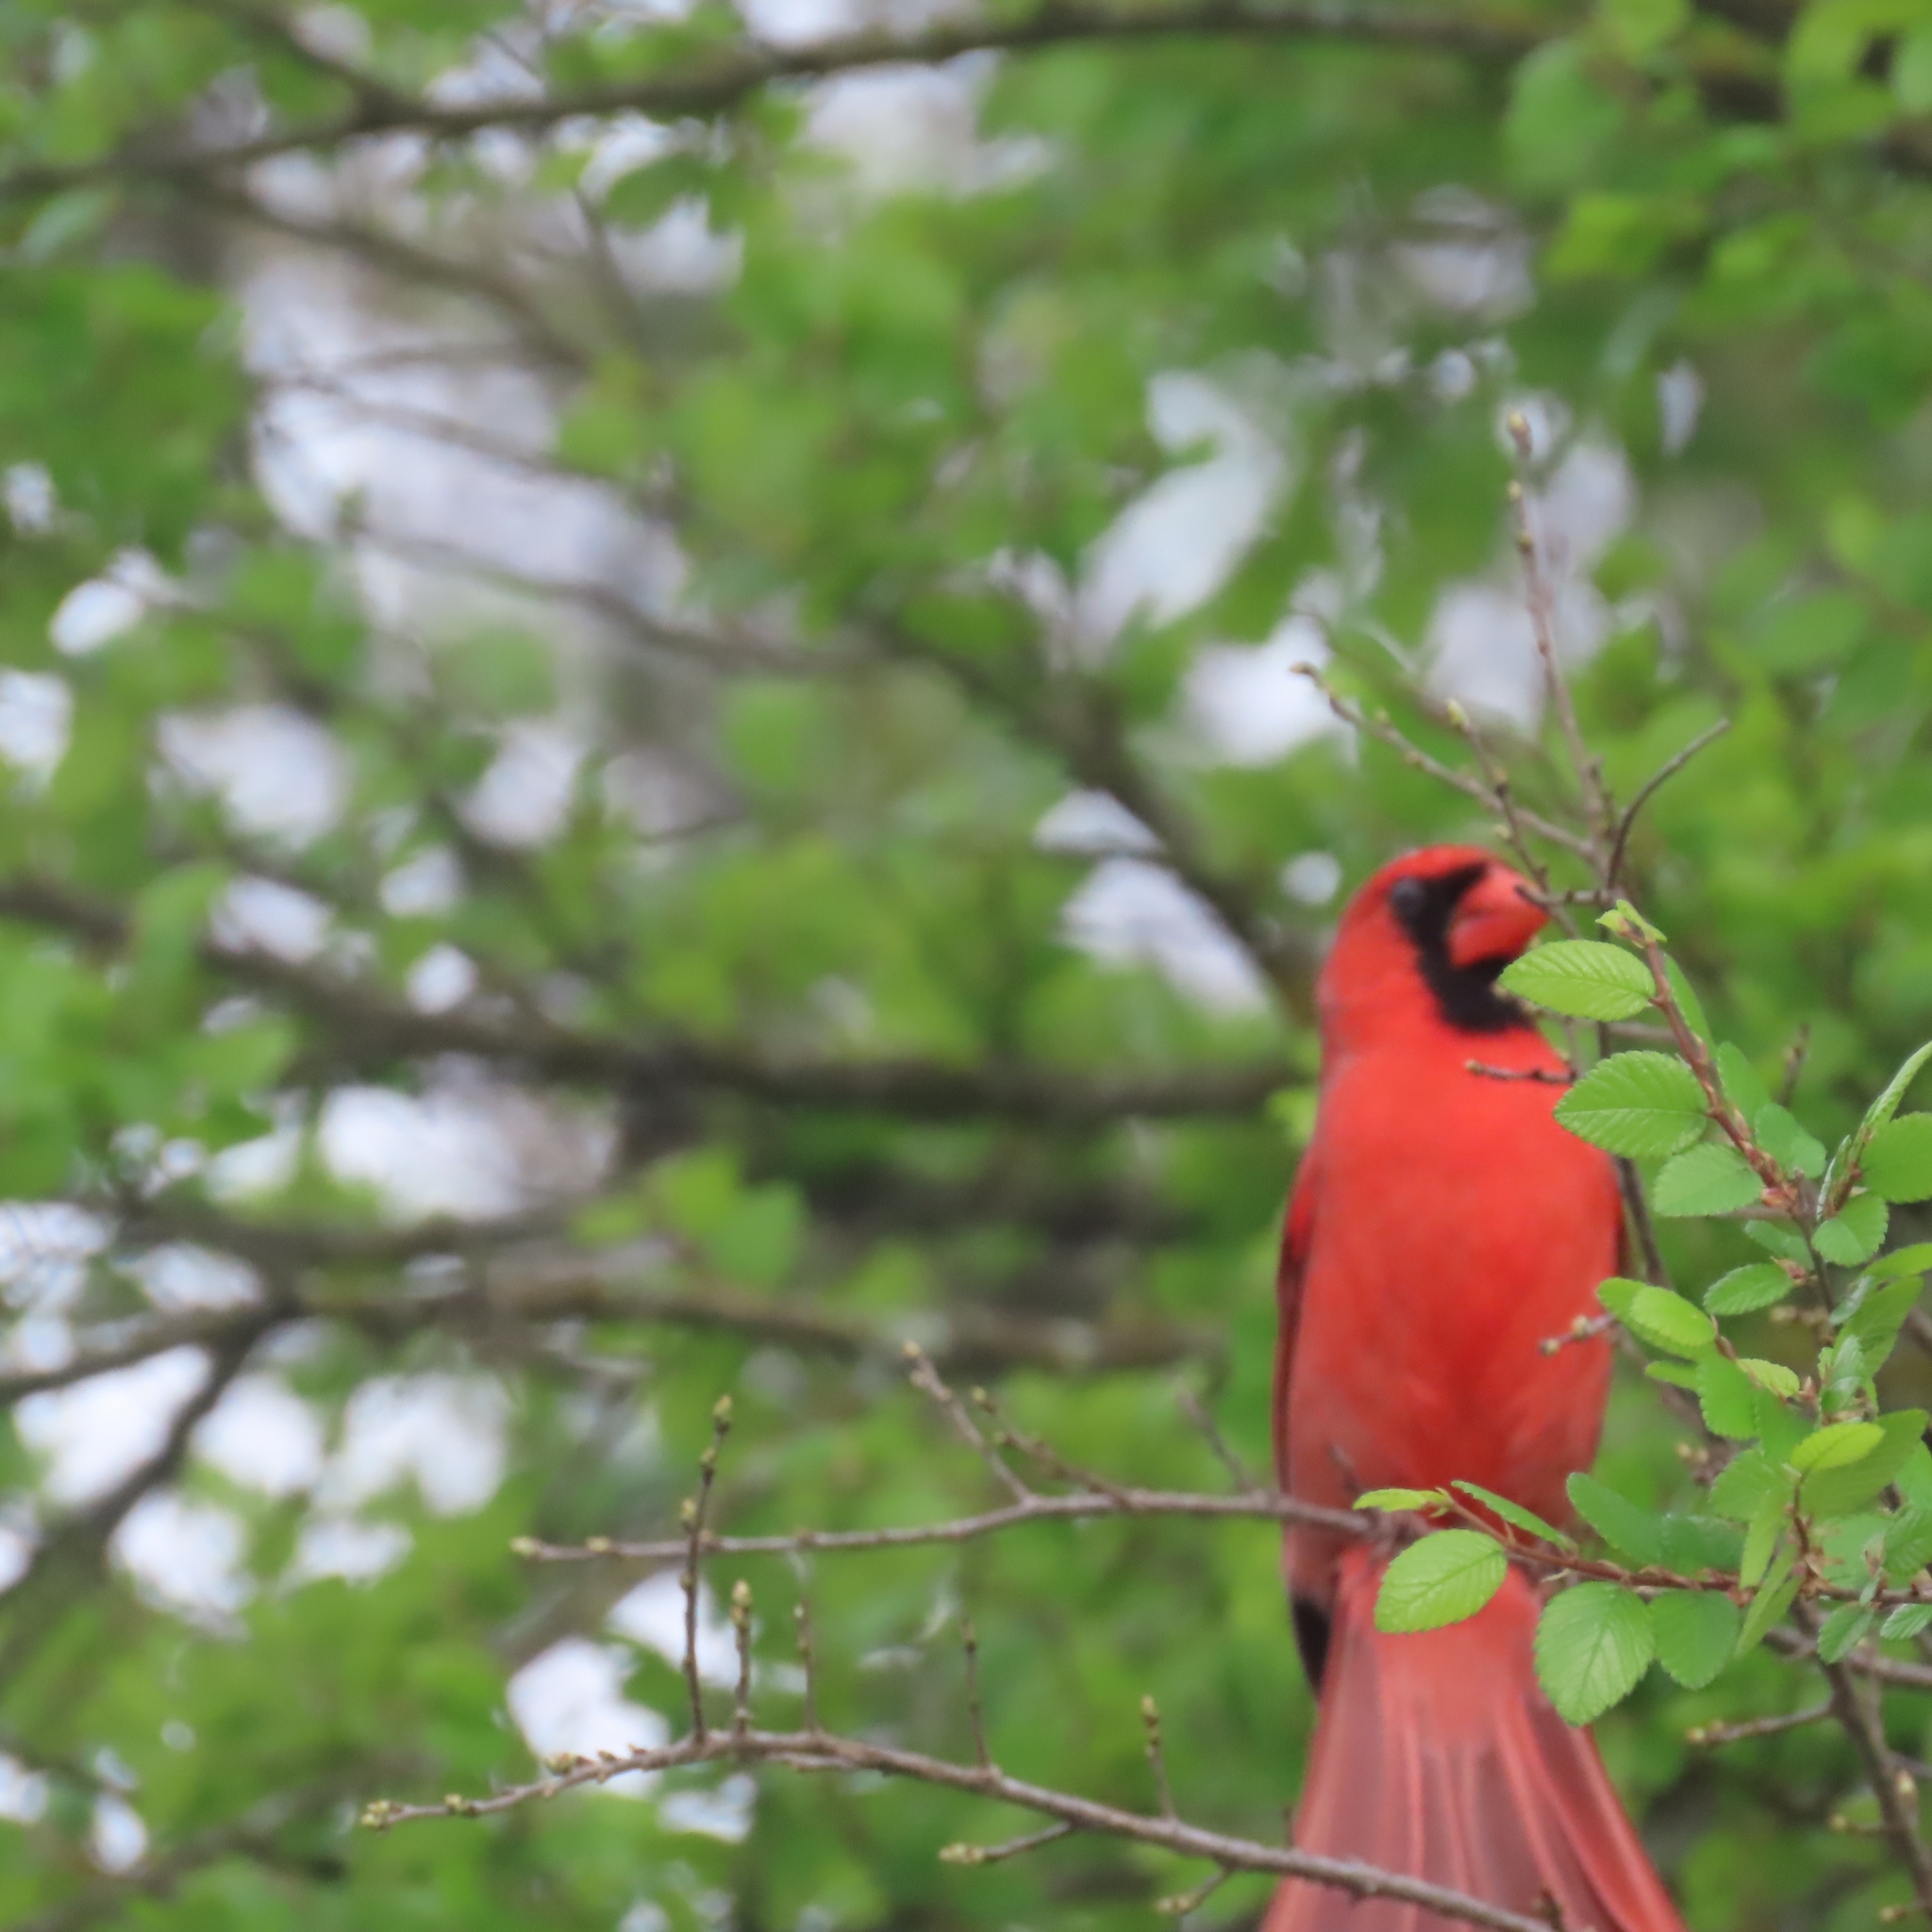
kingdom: Animalia
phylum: Chordata
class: Aves
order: Passeriformes
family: Cardinalidae
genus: Cardinalis
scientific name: Cardinalis cardinalis
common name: Northern cardinal
